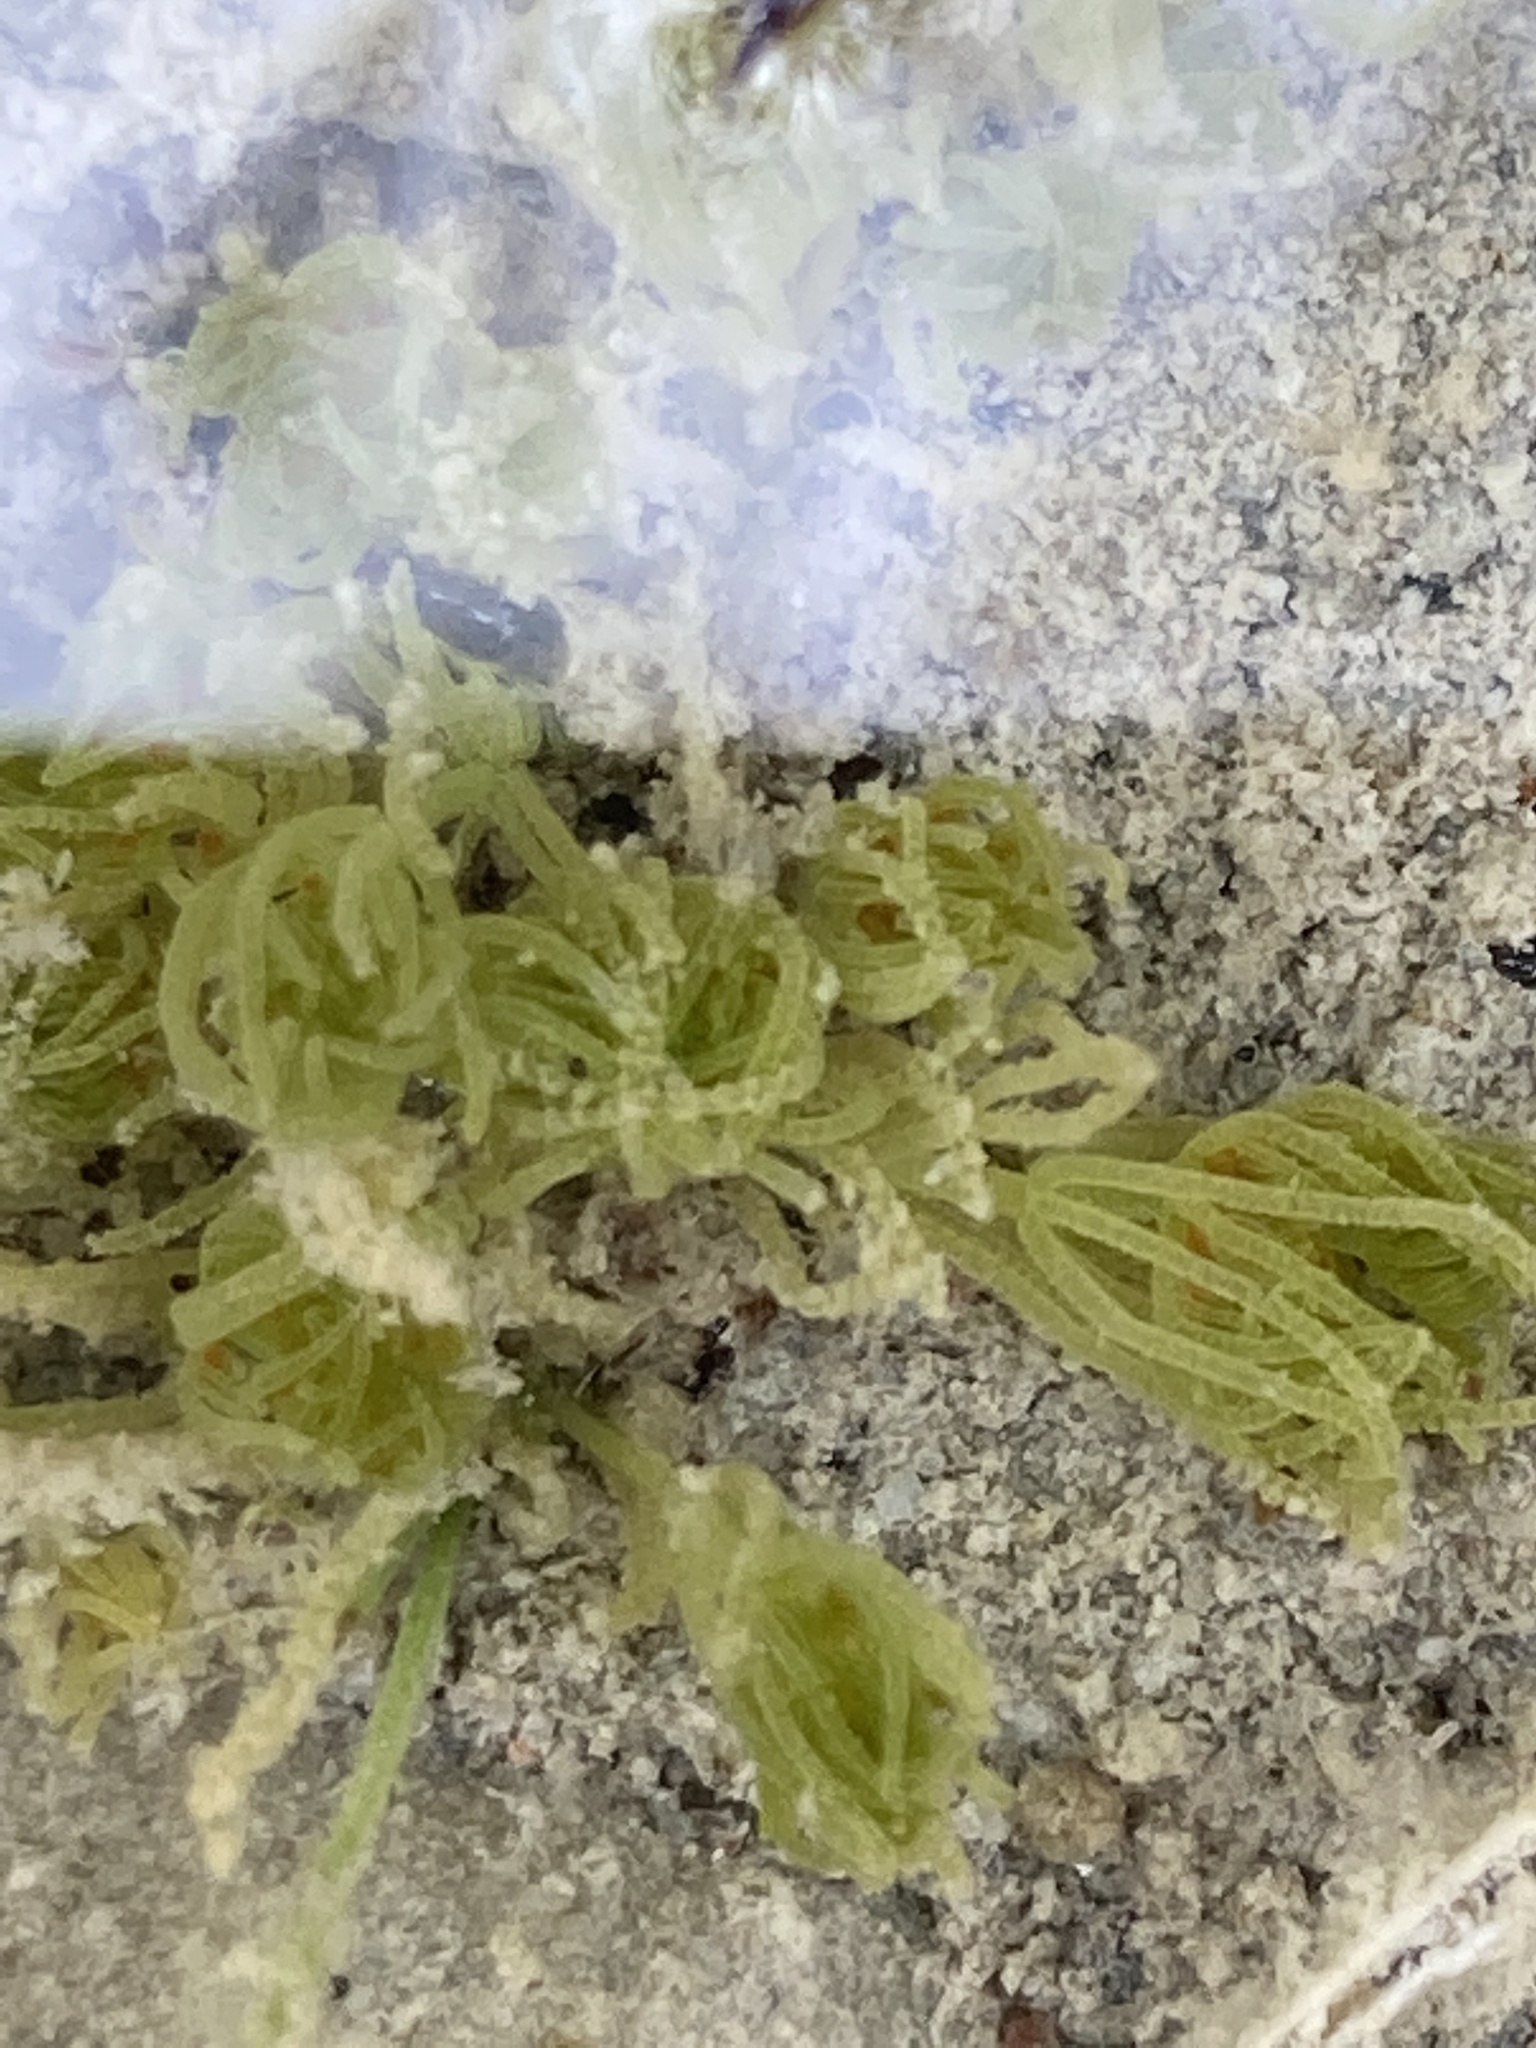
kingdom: Plantae
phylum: Charophyta
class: Charophyceae
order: Charales
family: Characeae
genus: Chara
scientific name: Chara vulgaris
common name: Common stonewort
